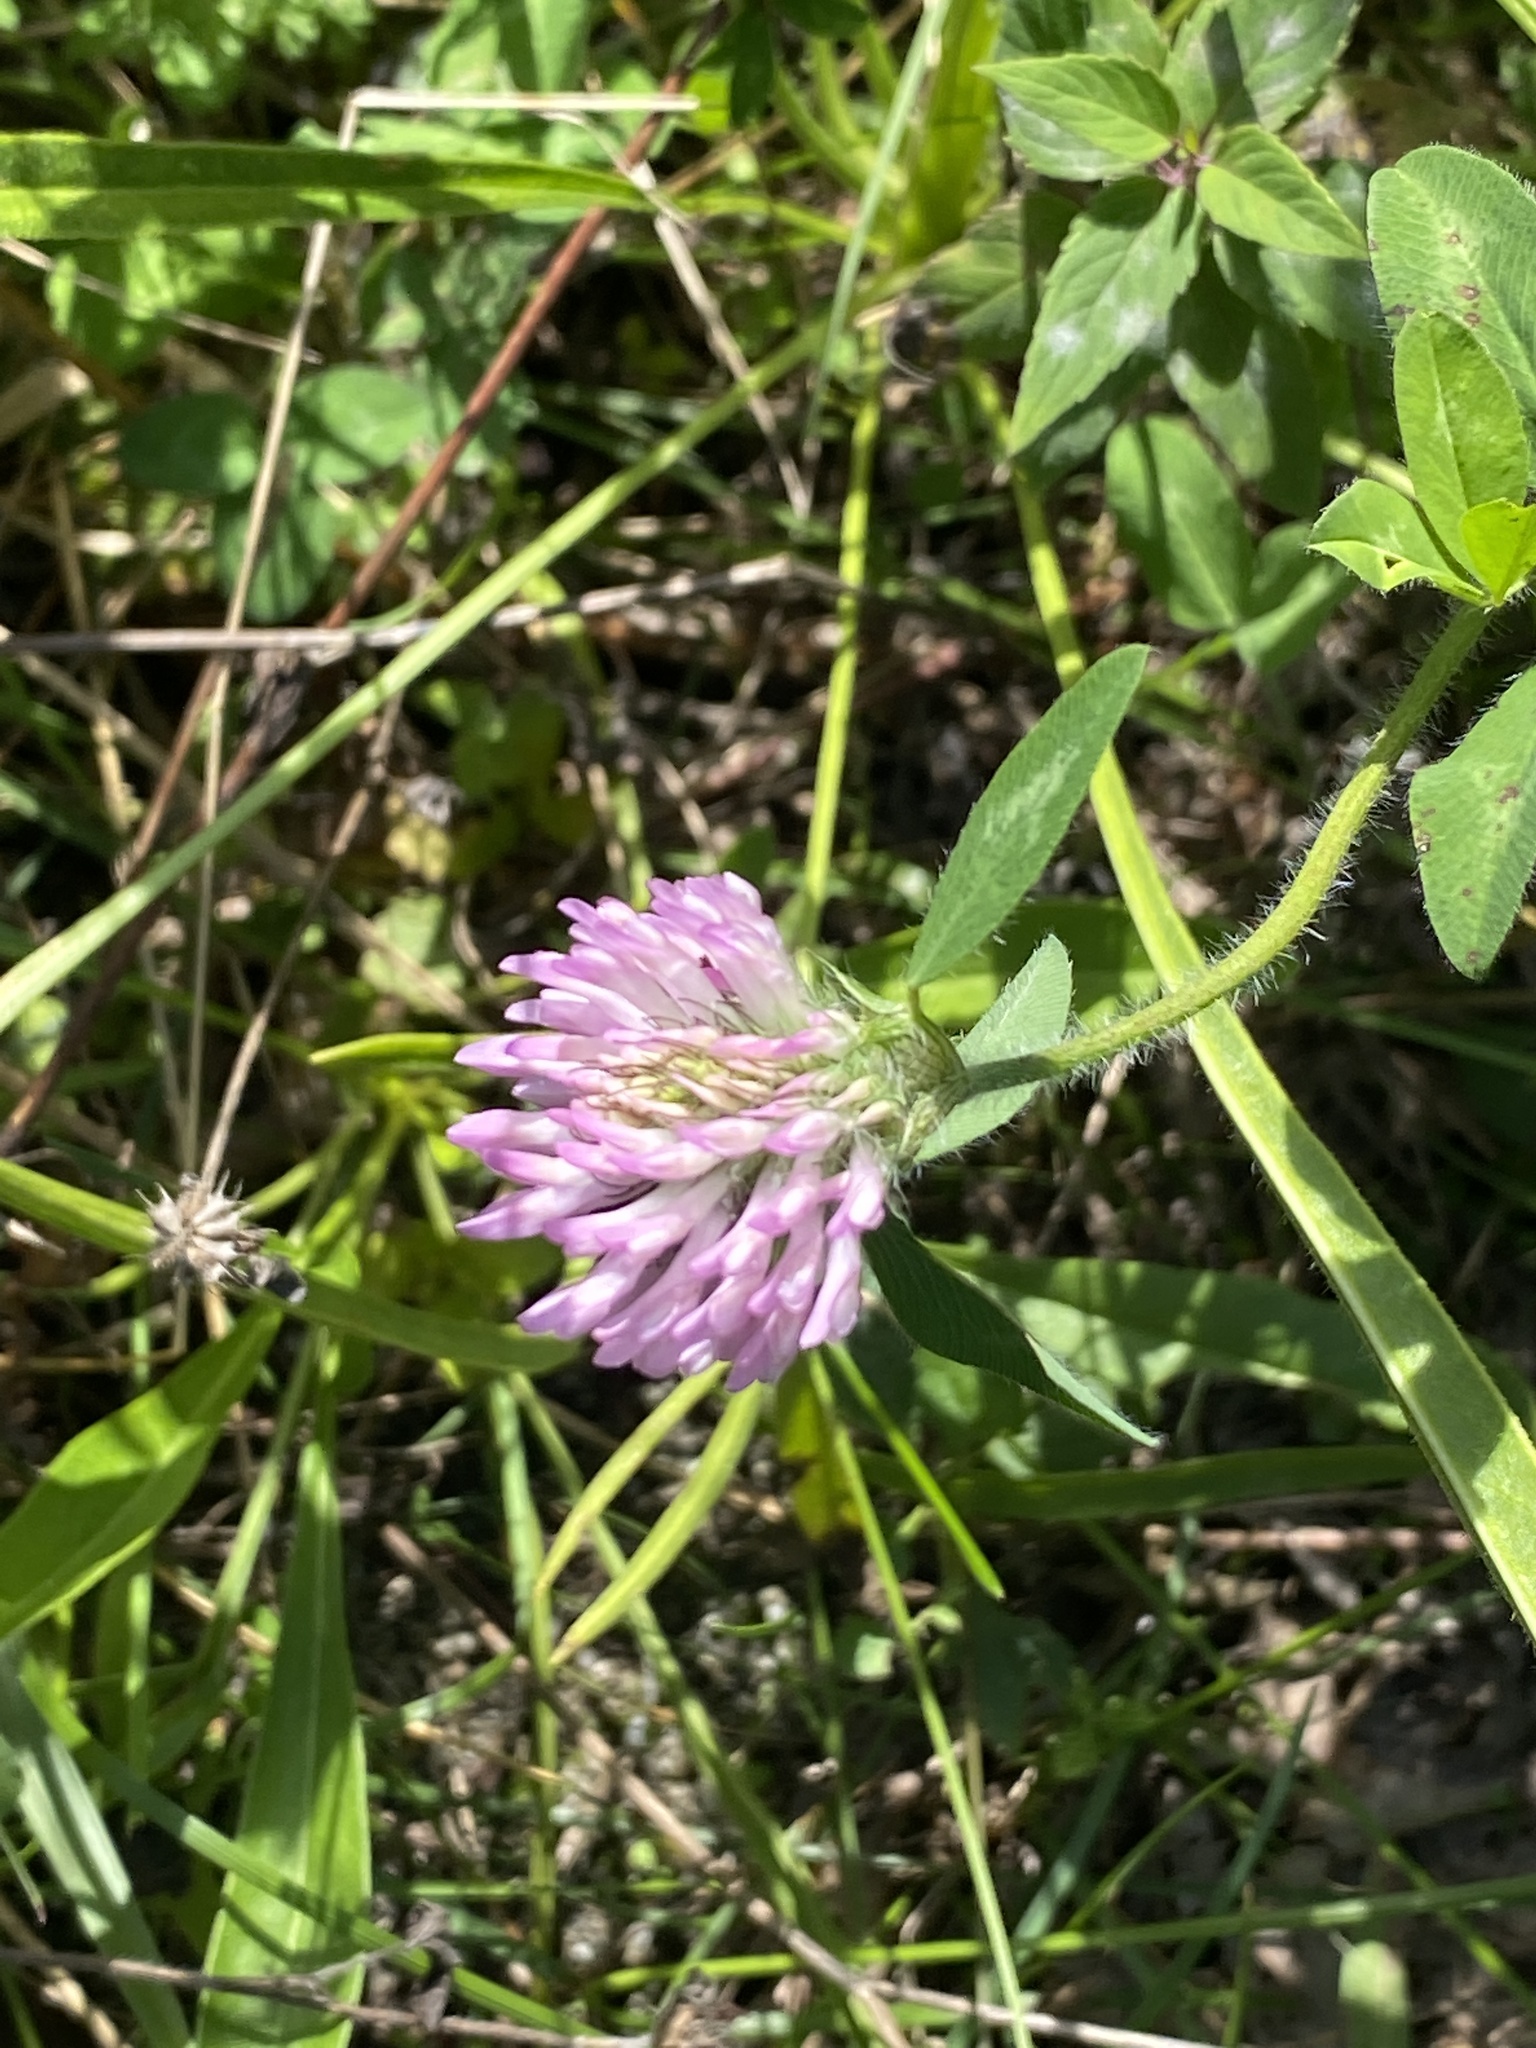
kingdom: Plantae
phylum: Tracheophyta
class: Magnoliopsida
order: Fabales
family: Fabaceae
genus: Trifolium
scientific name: Trifolium pratense
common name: Red clover
